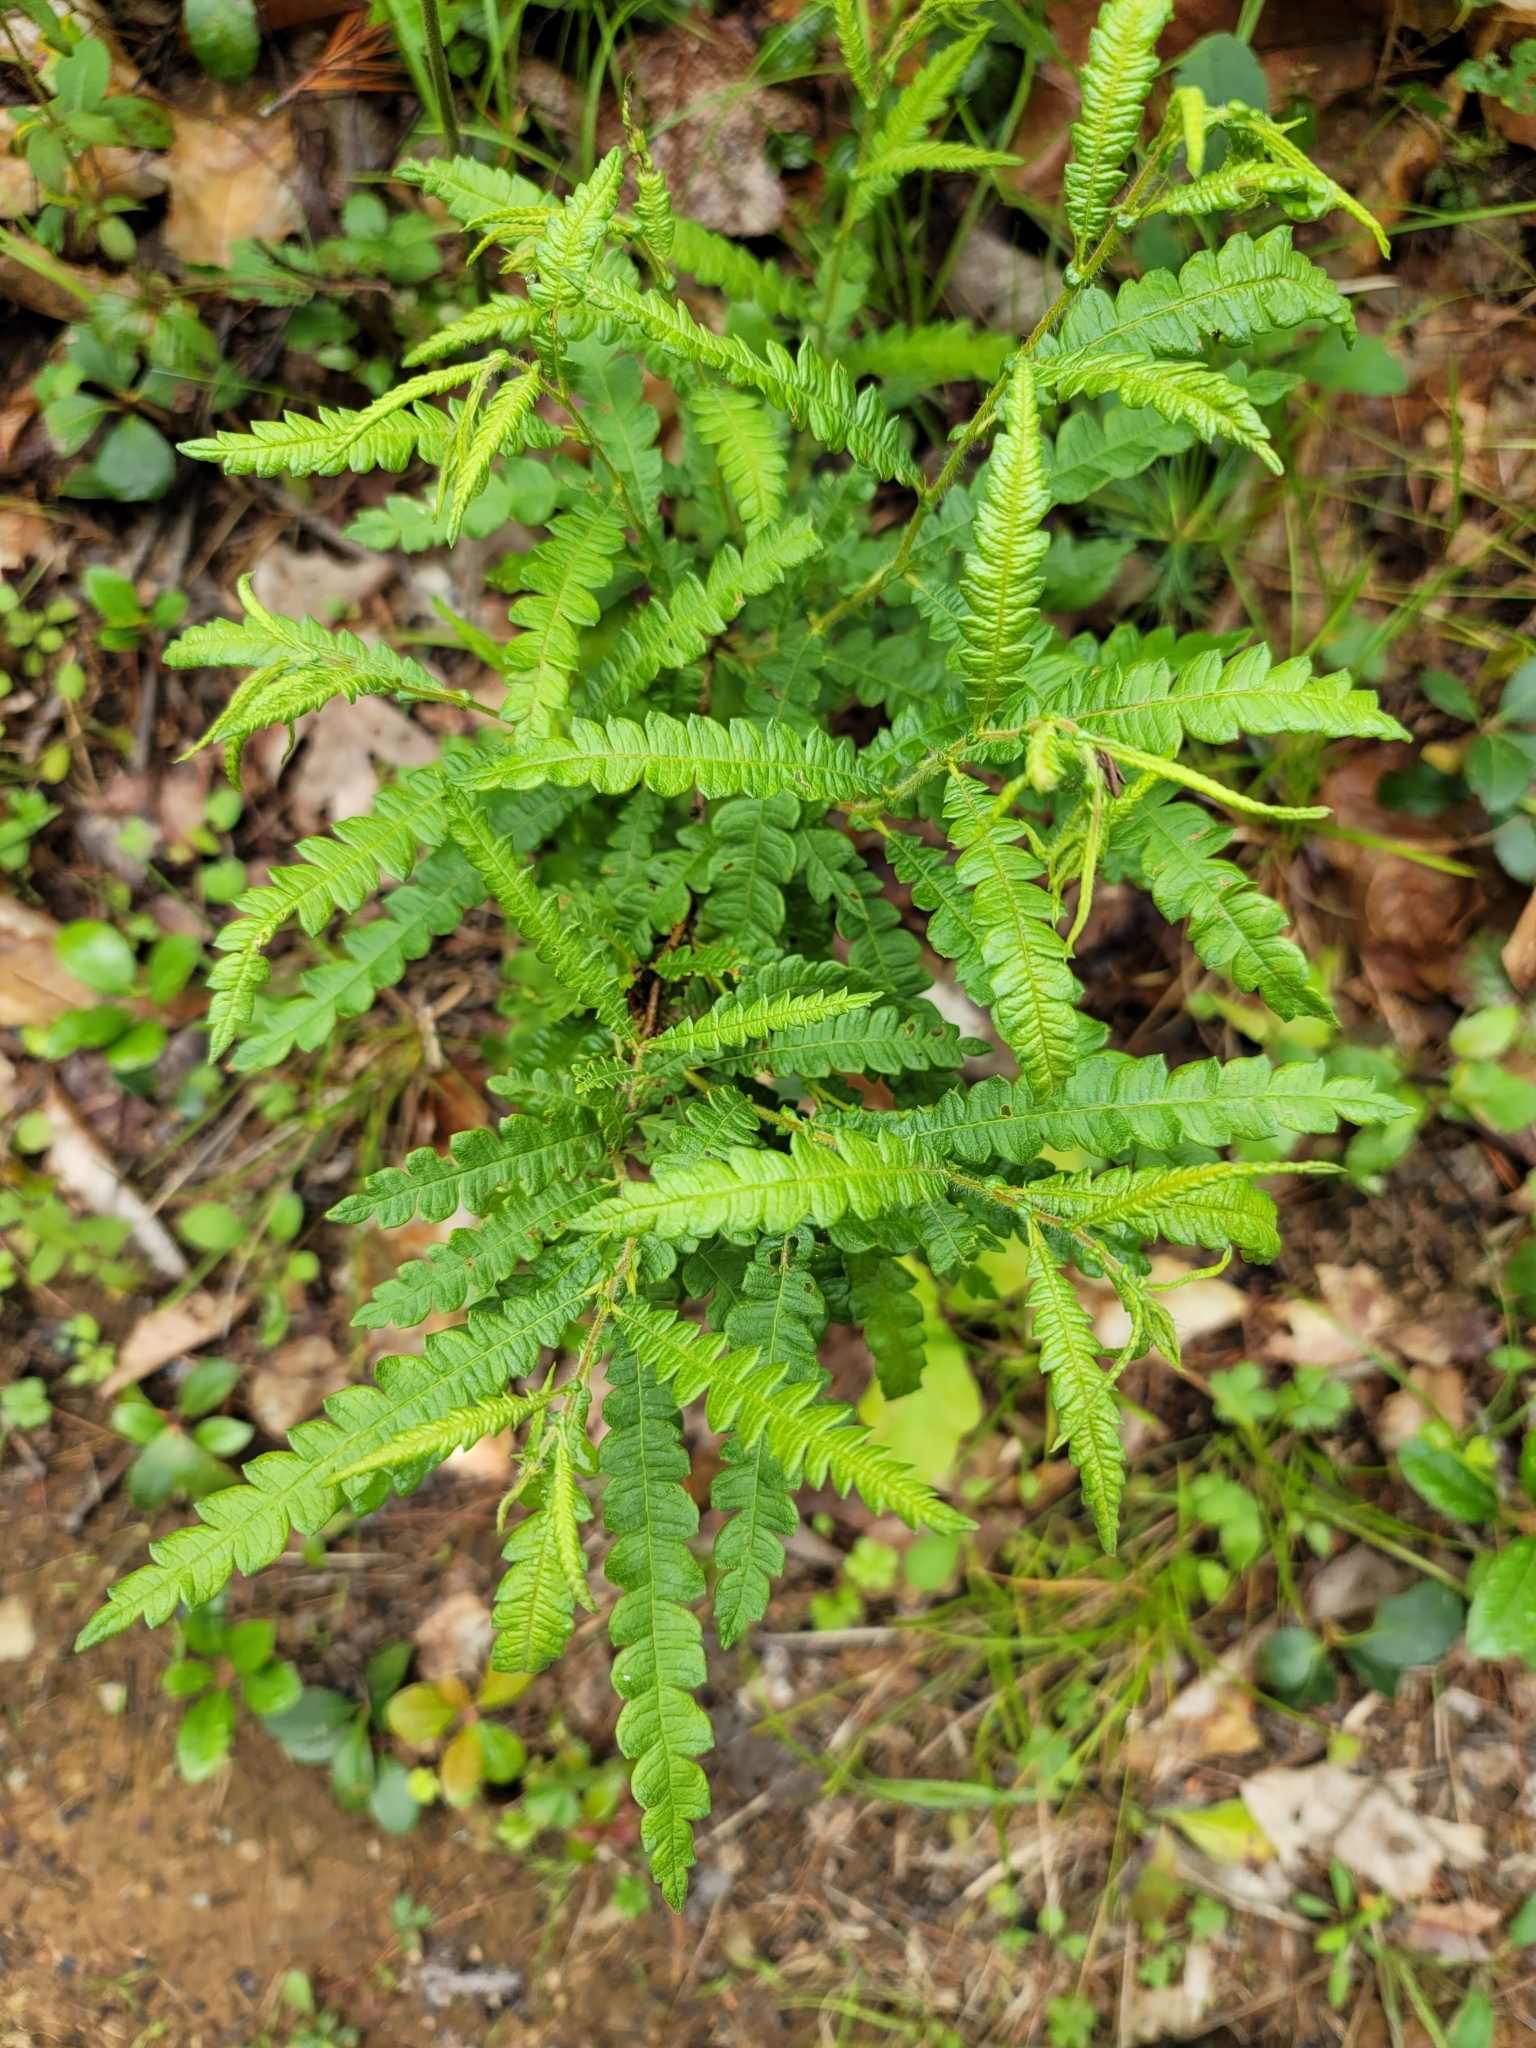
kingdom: Plantae
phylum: Tracheophyta
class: Magnoliopsida
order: Fagales
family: Myricaceae
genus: Comptonia
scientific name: Comptonia peregrina
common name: Sweet-fern
